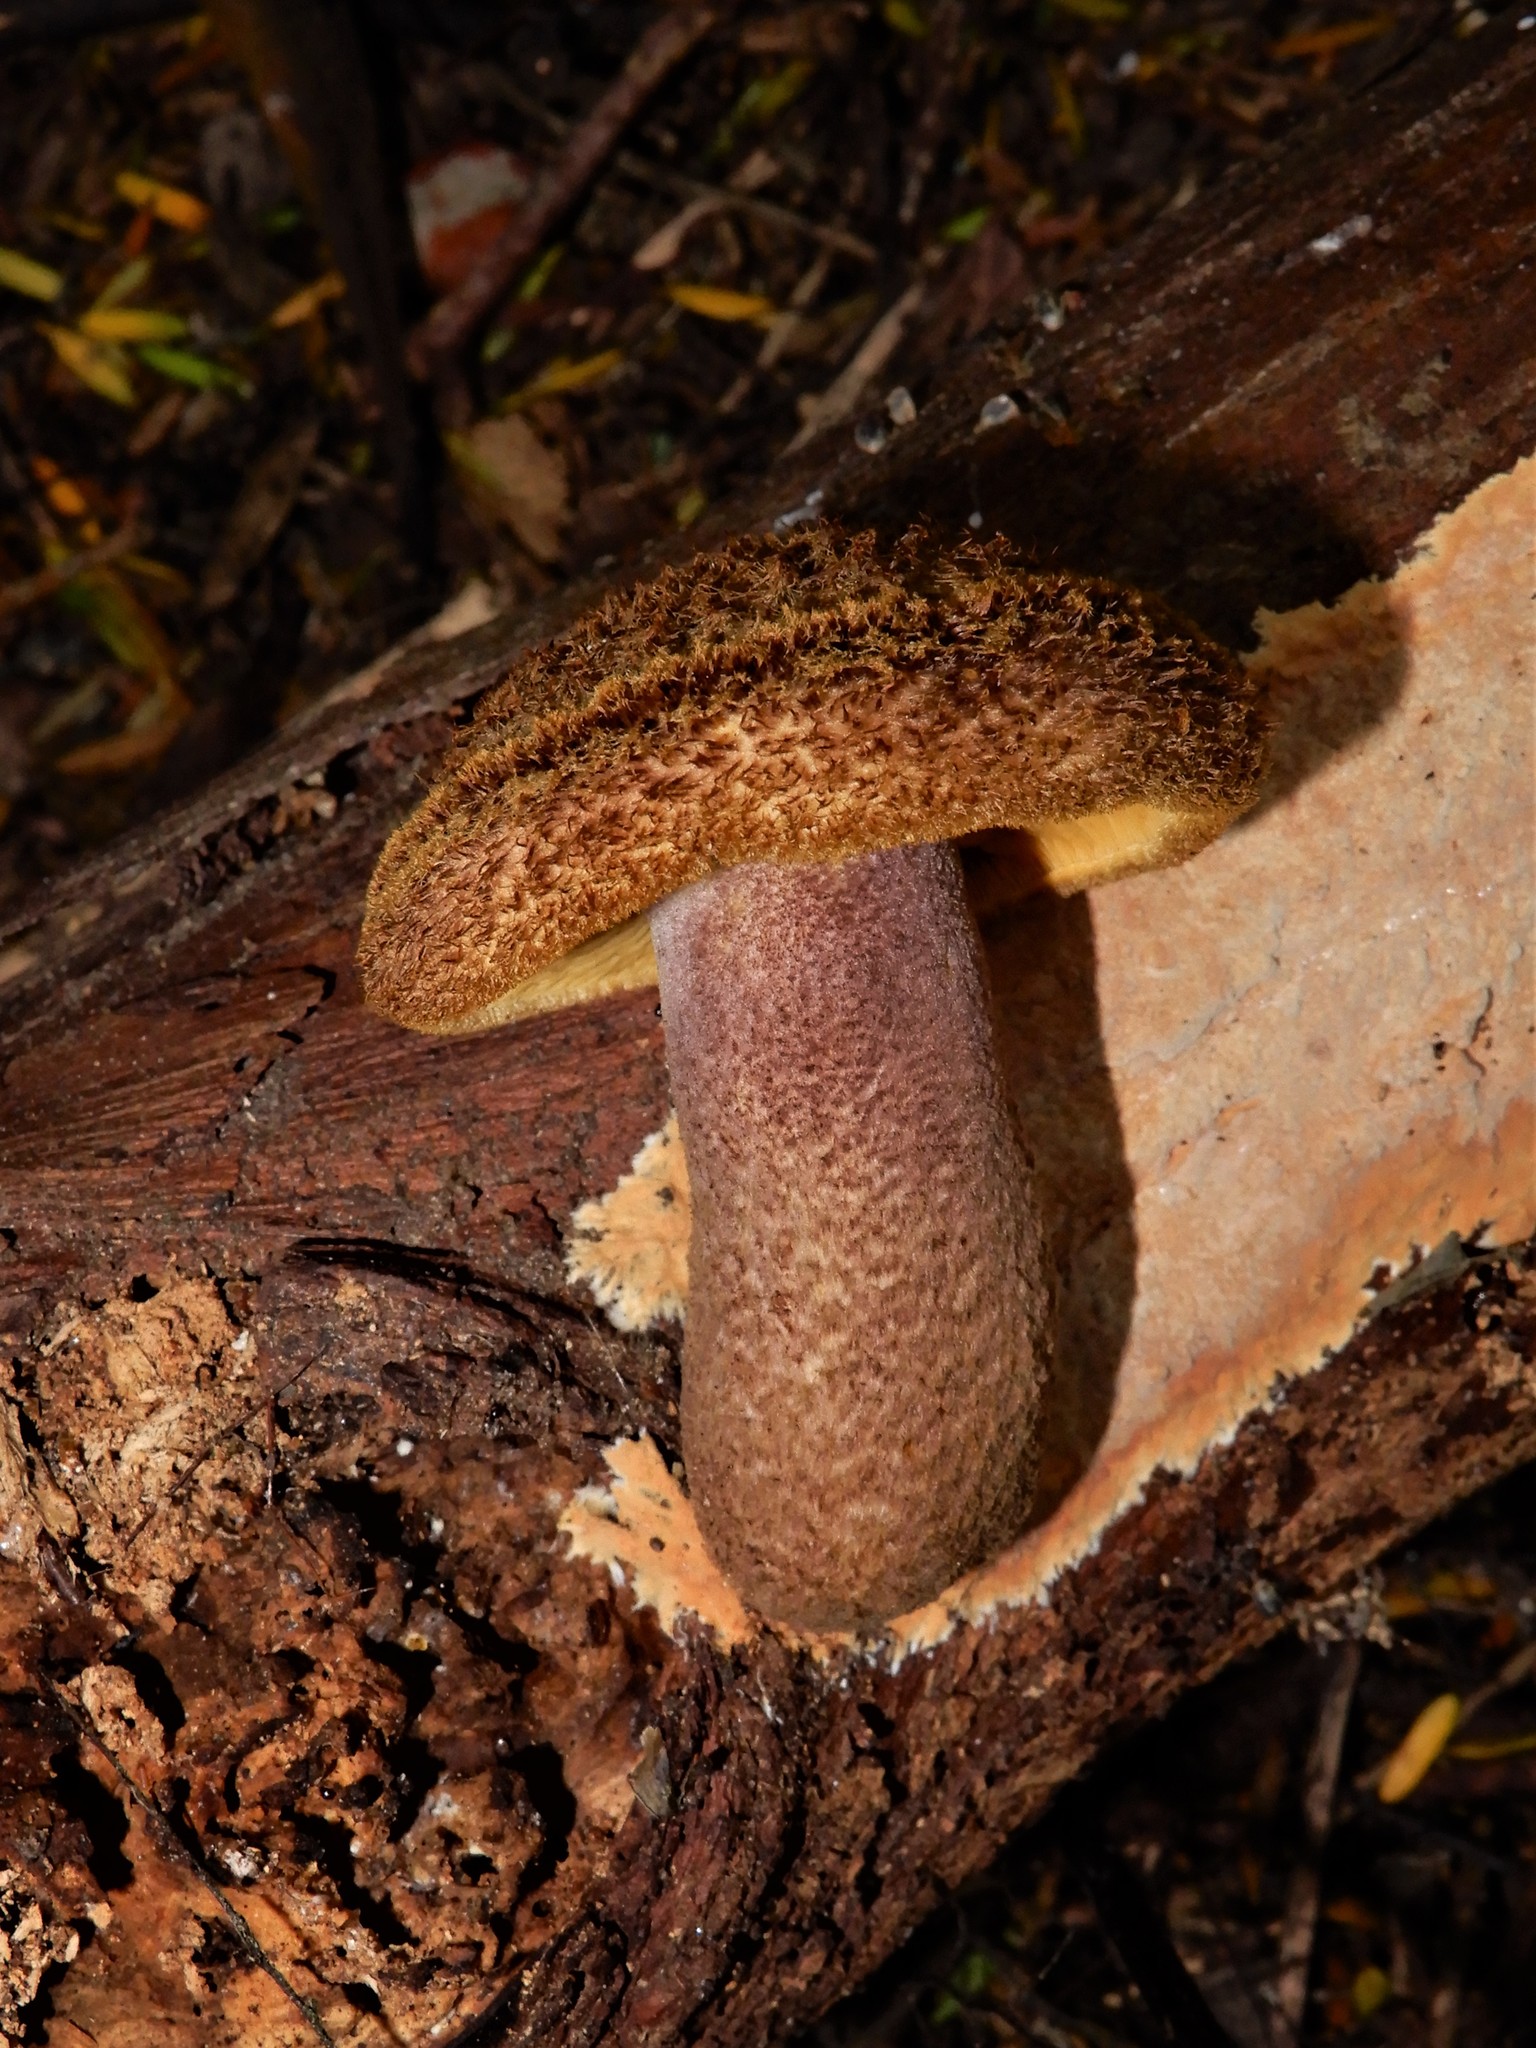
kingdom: Fungi
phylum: Basidiomycota
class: Agaricomycetes
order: Agaricales
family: Tricholomataceae
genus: Tricholomopsis
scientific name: Tricholomopsis scabra
